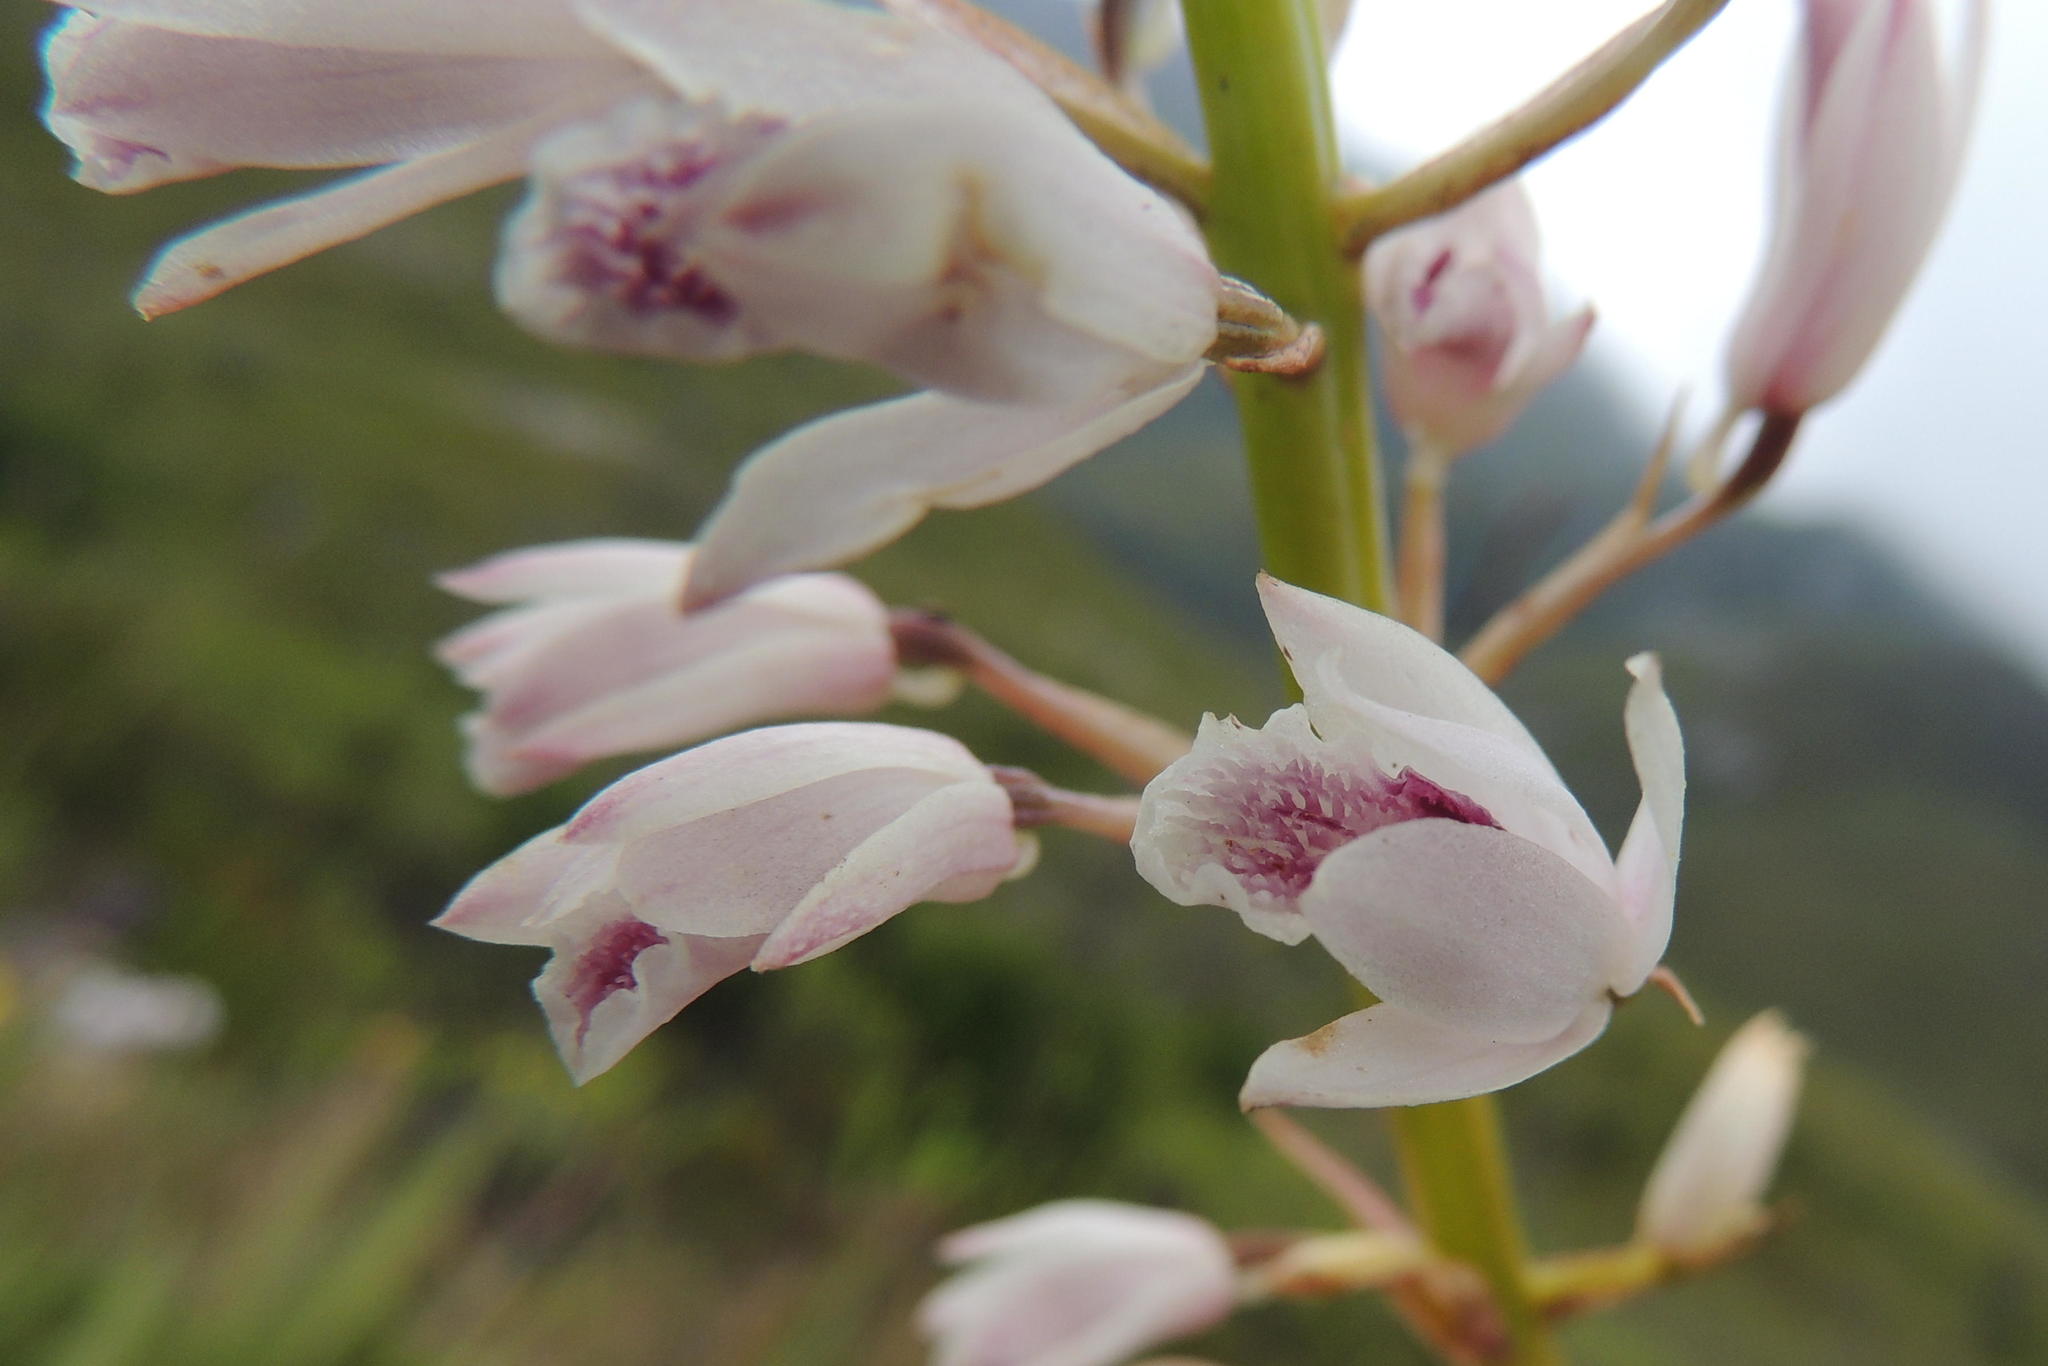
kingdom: Plantae
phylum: Tracheophyta
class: Liliopsida
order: Asparagales
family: Orchidaceae
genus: Eulophia
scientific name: Eulophia barbata
